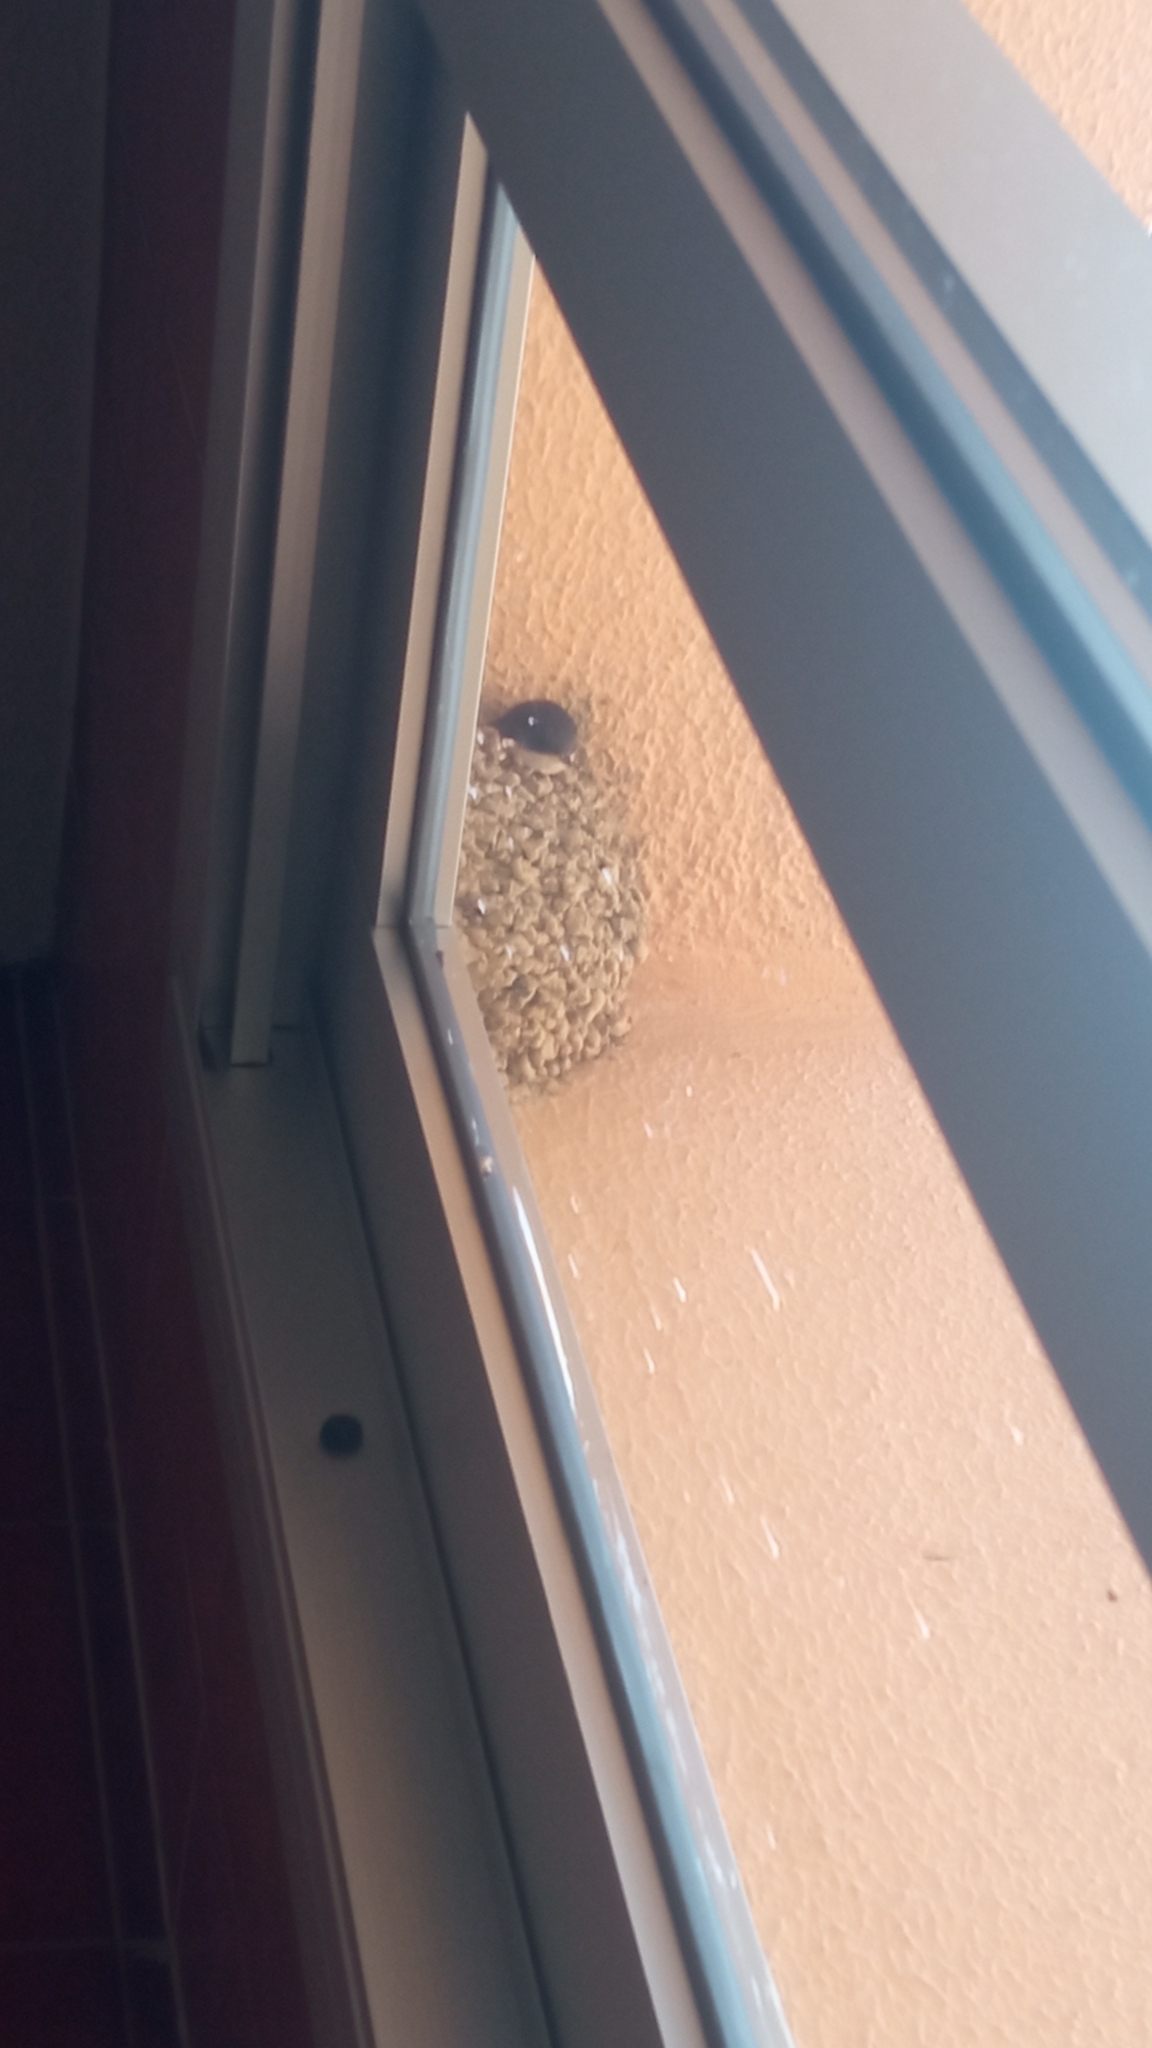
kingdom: Animalia
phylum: Chordata
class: Aves
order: Passeriformes
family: Hirundinidae
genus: Delichon
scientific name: Delichon urbicum
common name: Common house martin
